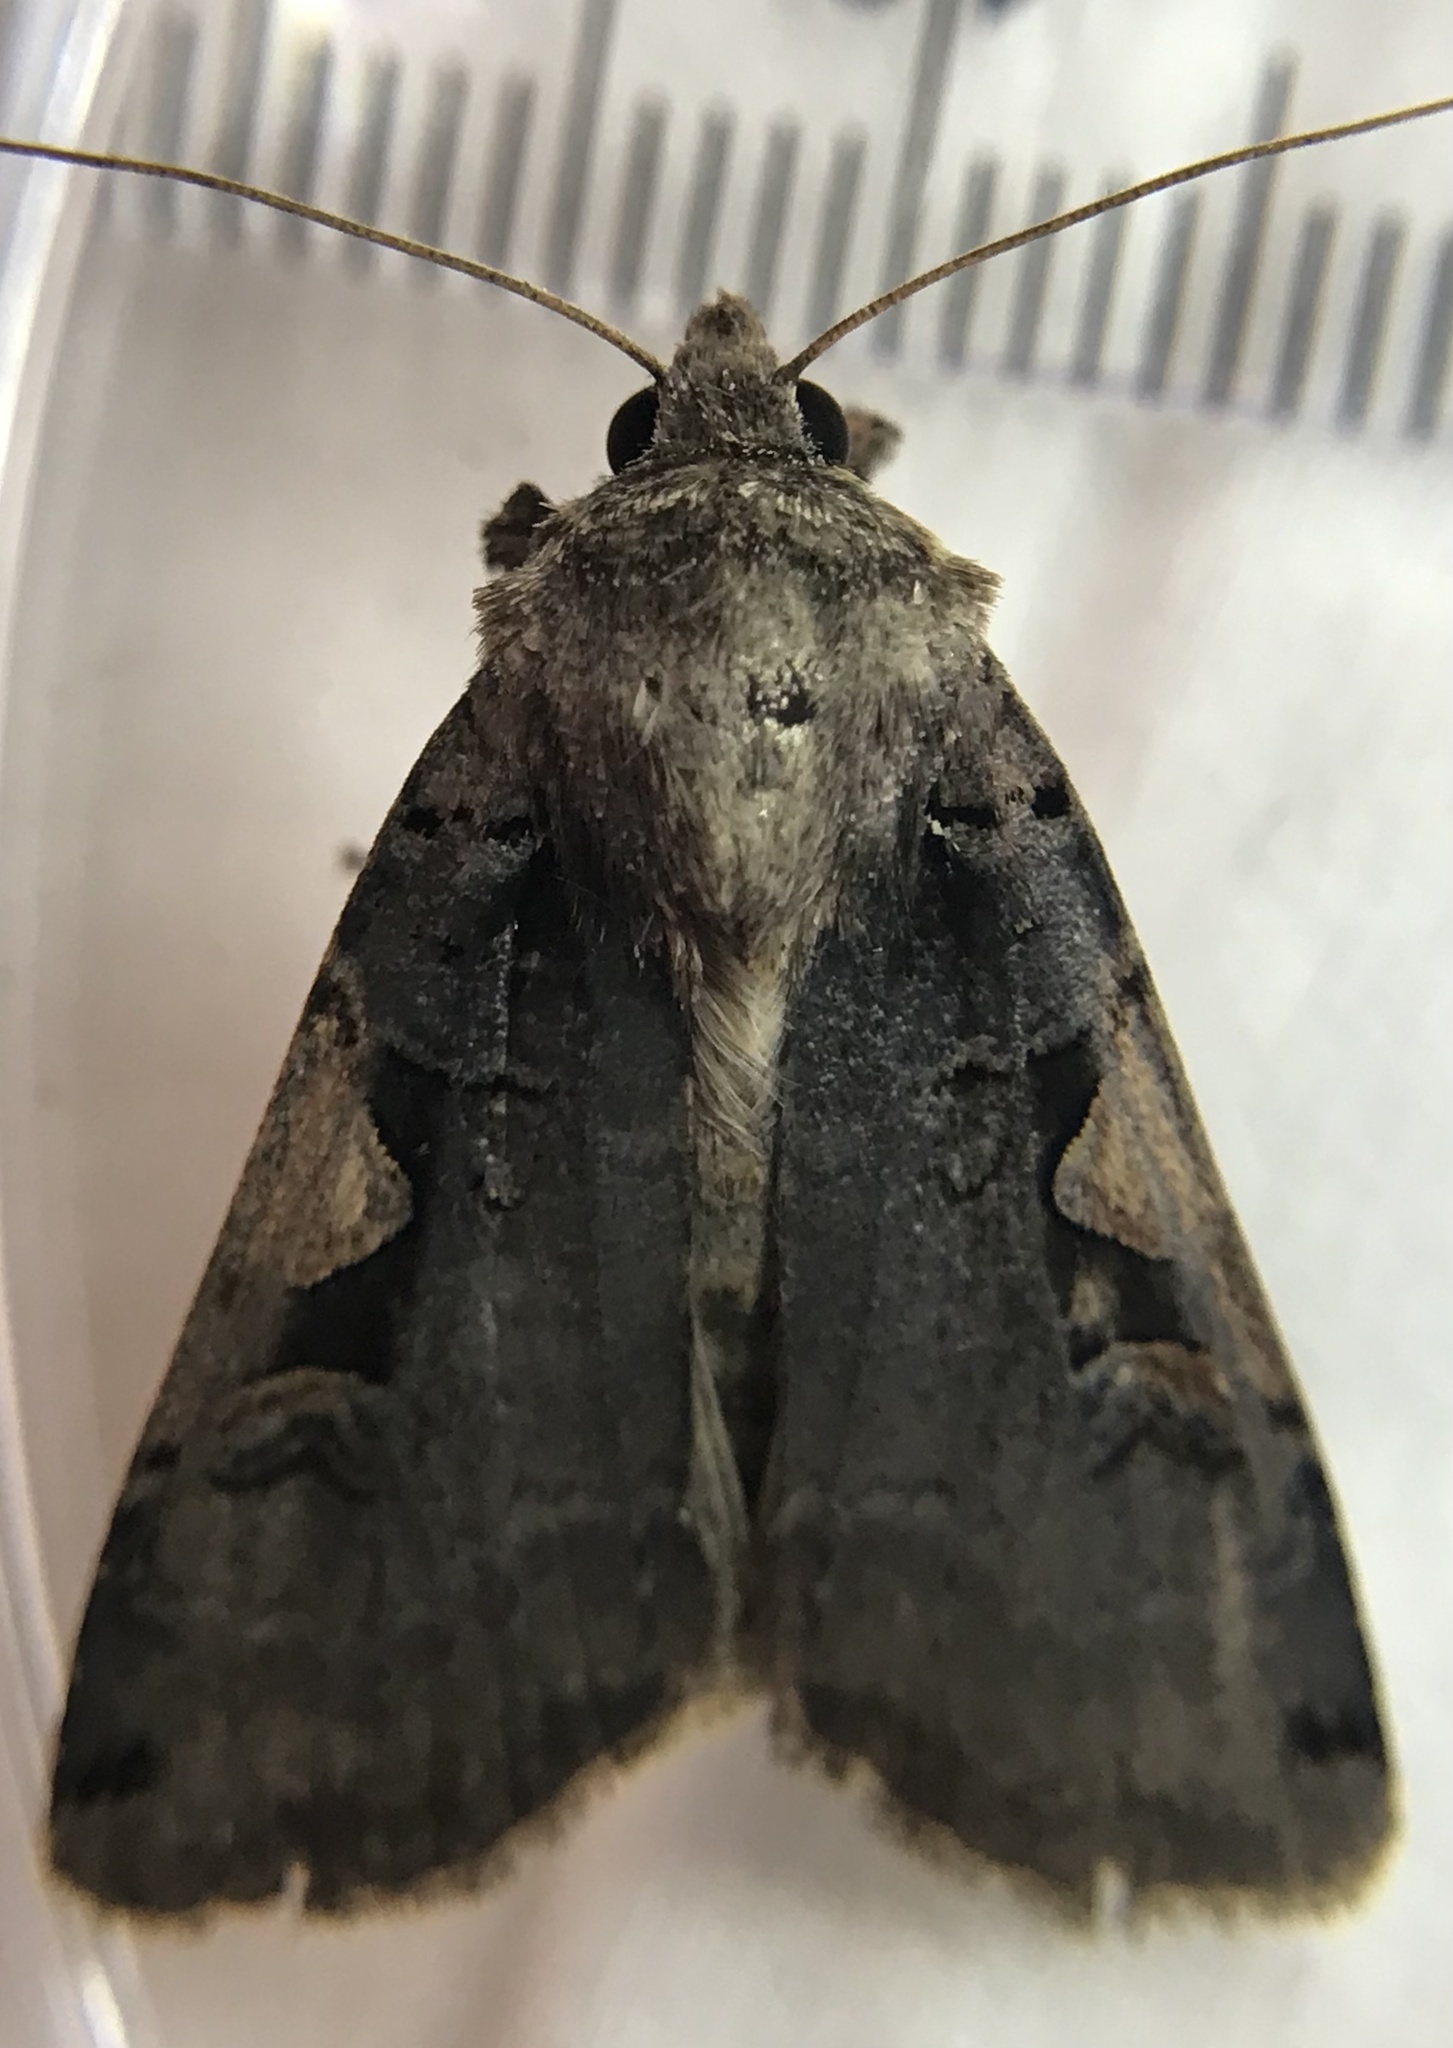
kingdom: Animalia
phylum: Arthropoda
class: Insecta
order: Lepidoptera
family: Noctuidae
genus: Xestia
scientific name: Xestia
